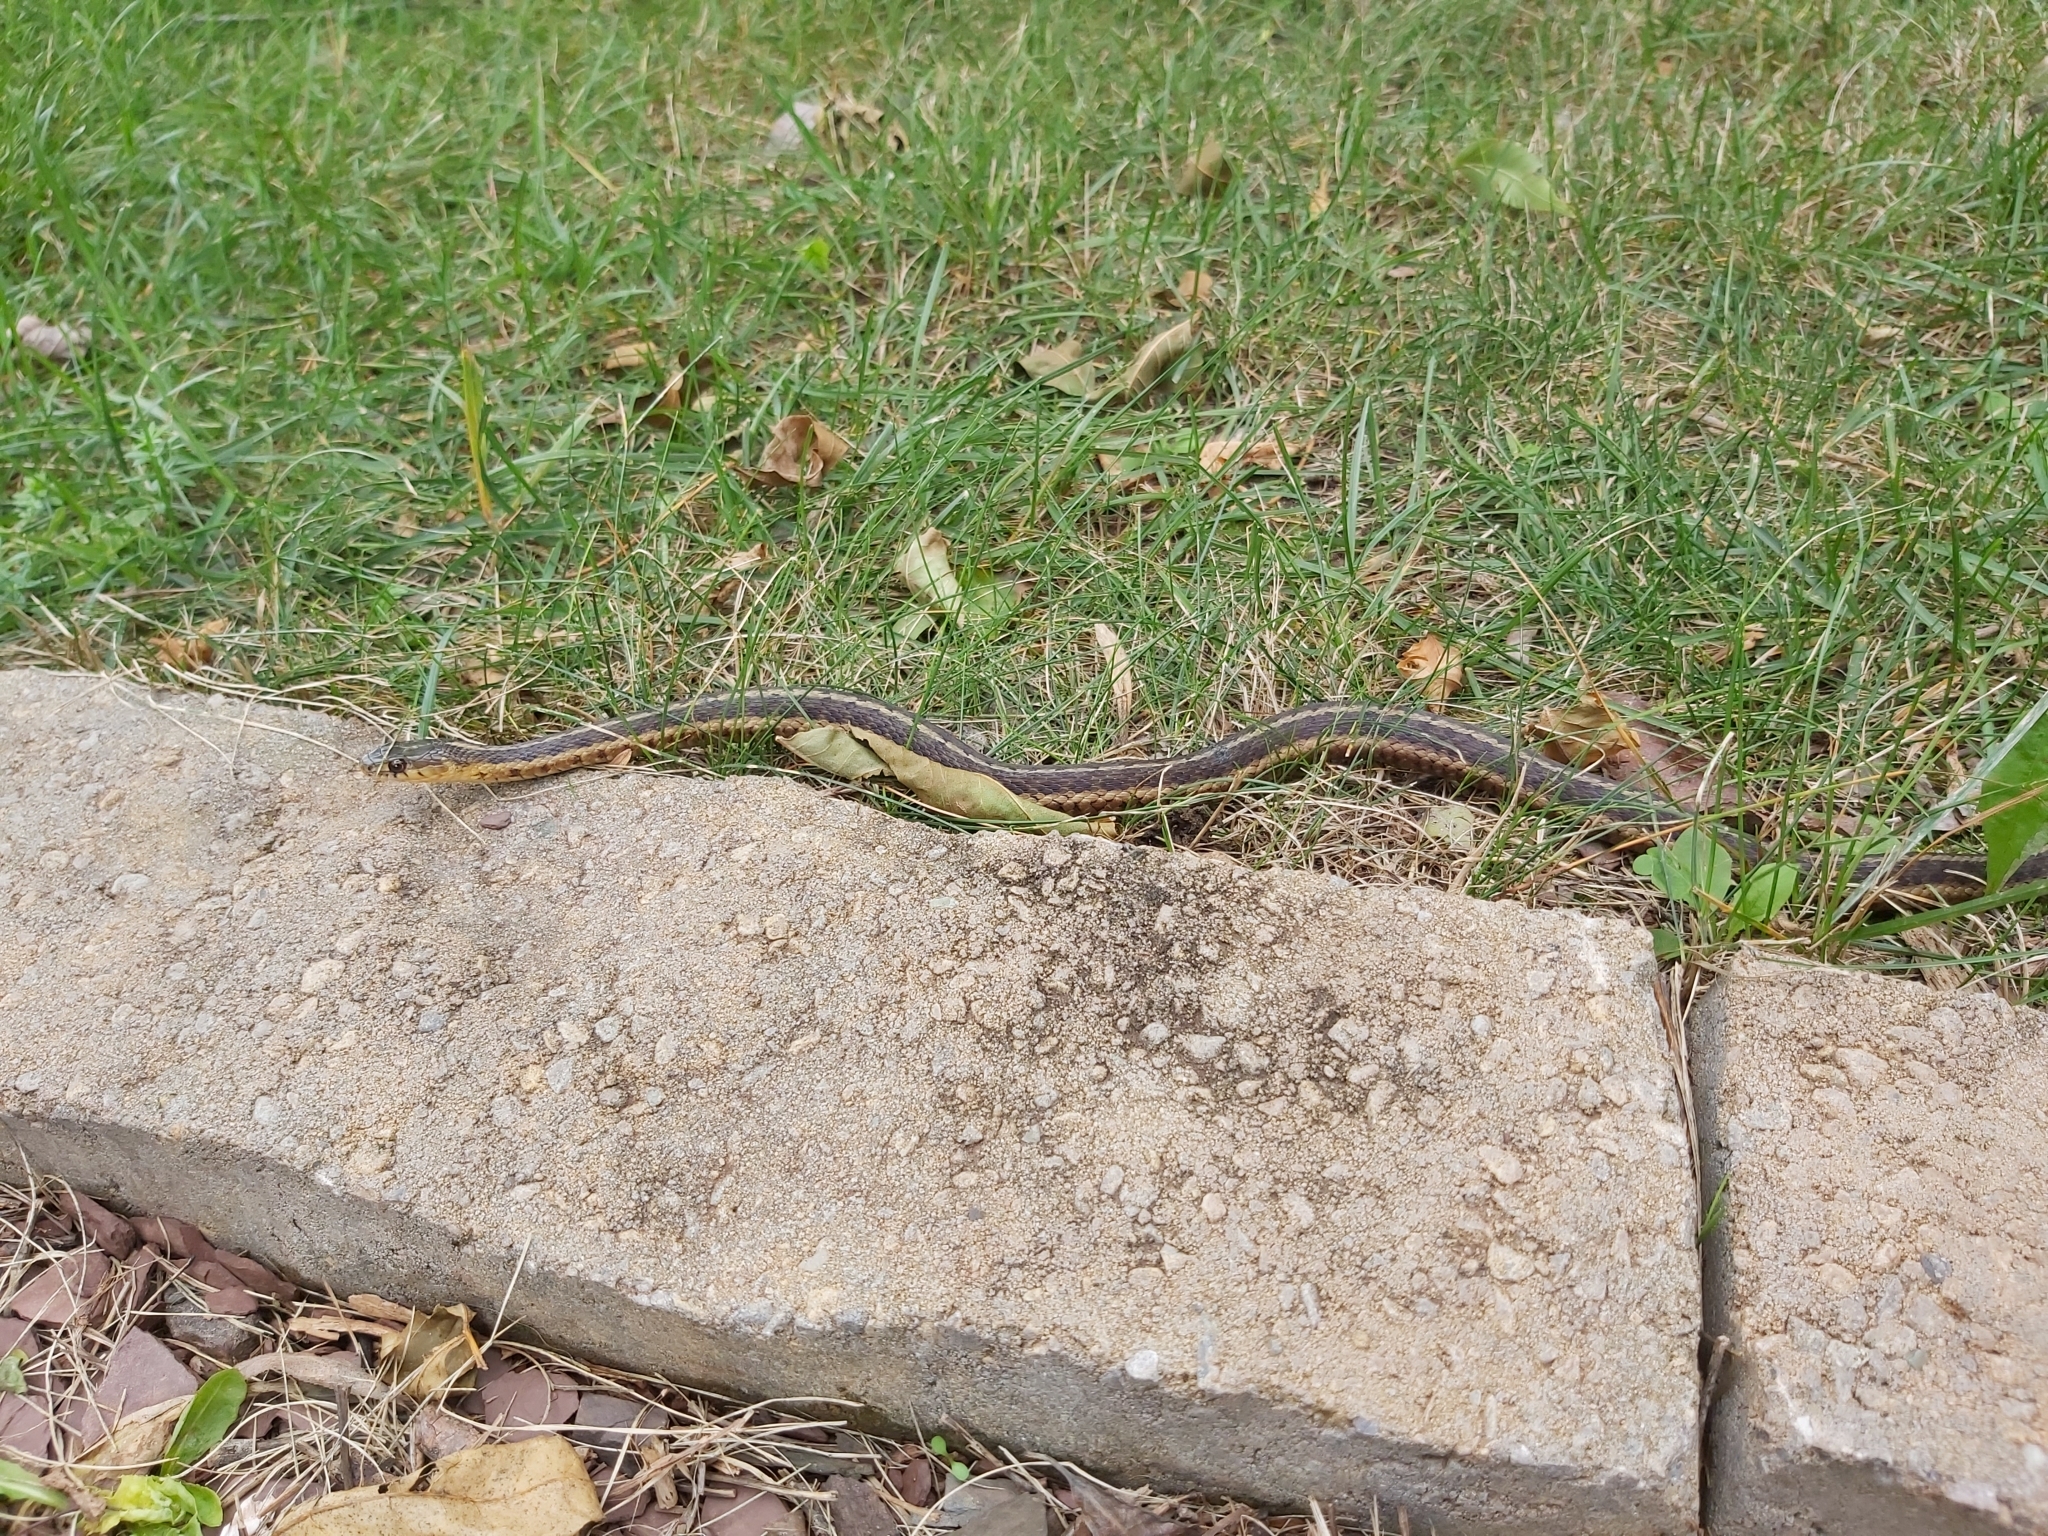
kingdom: Animalia
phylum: Chordata
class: Squamata
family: Colubridae
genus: Thamnophis
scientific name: Thamnophis sirtalis
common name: Common garter snake
